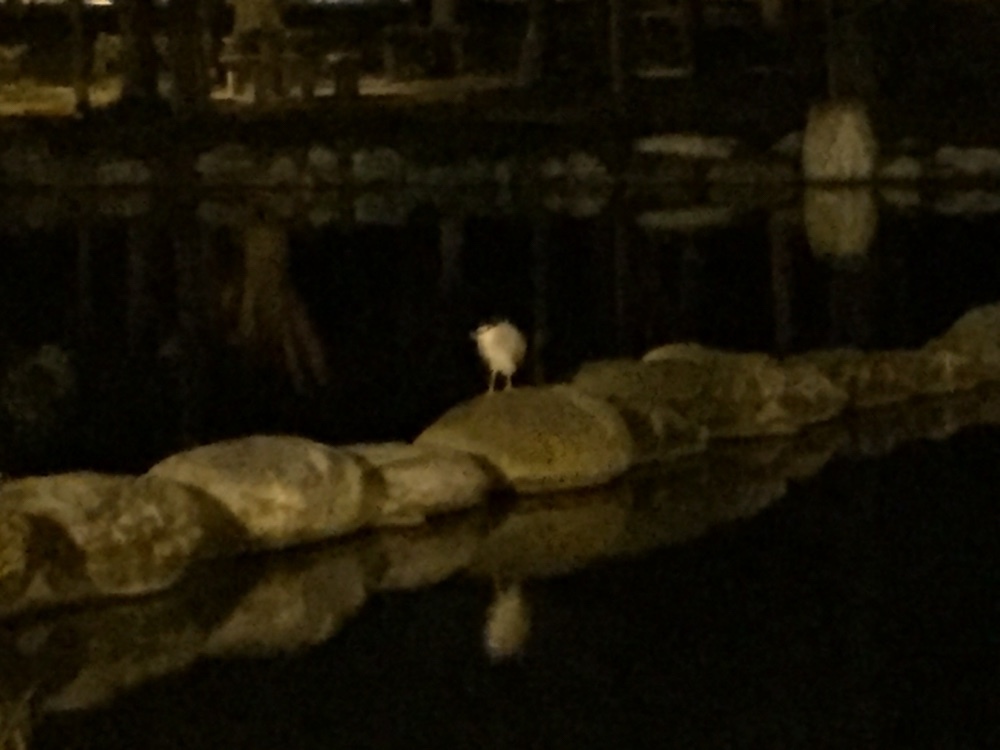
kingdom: Animalia
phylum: Chordata
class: Aves
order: Pelecaniformes
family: Ardeidae
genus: Nycticorax
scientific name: Nycticorax nycticorax
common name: Black-crowned night heron
